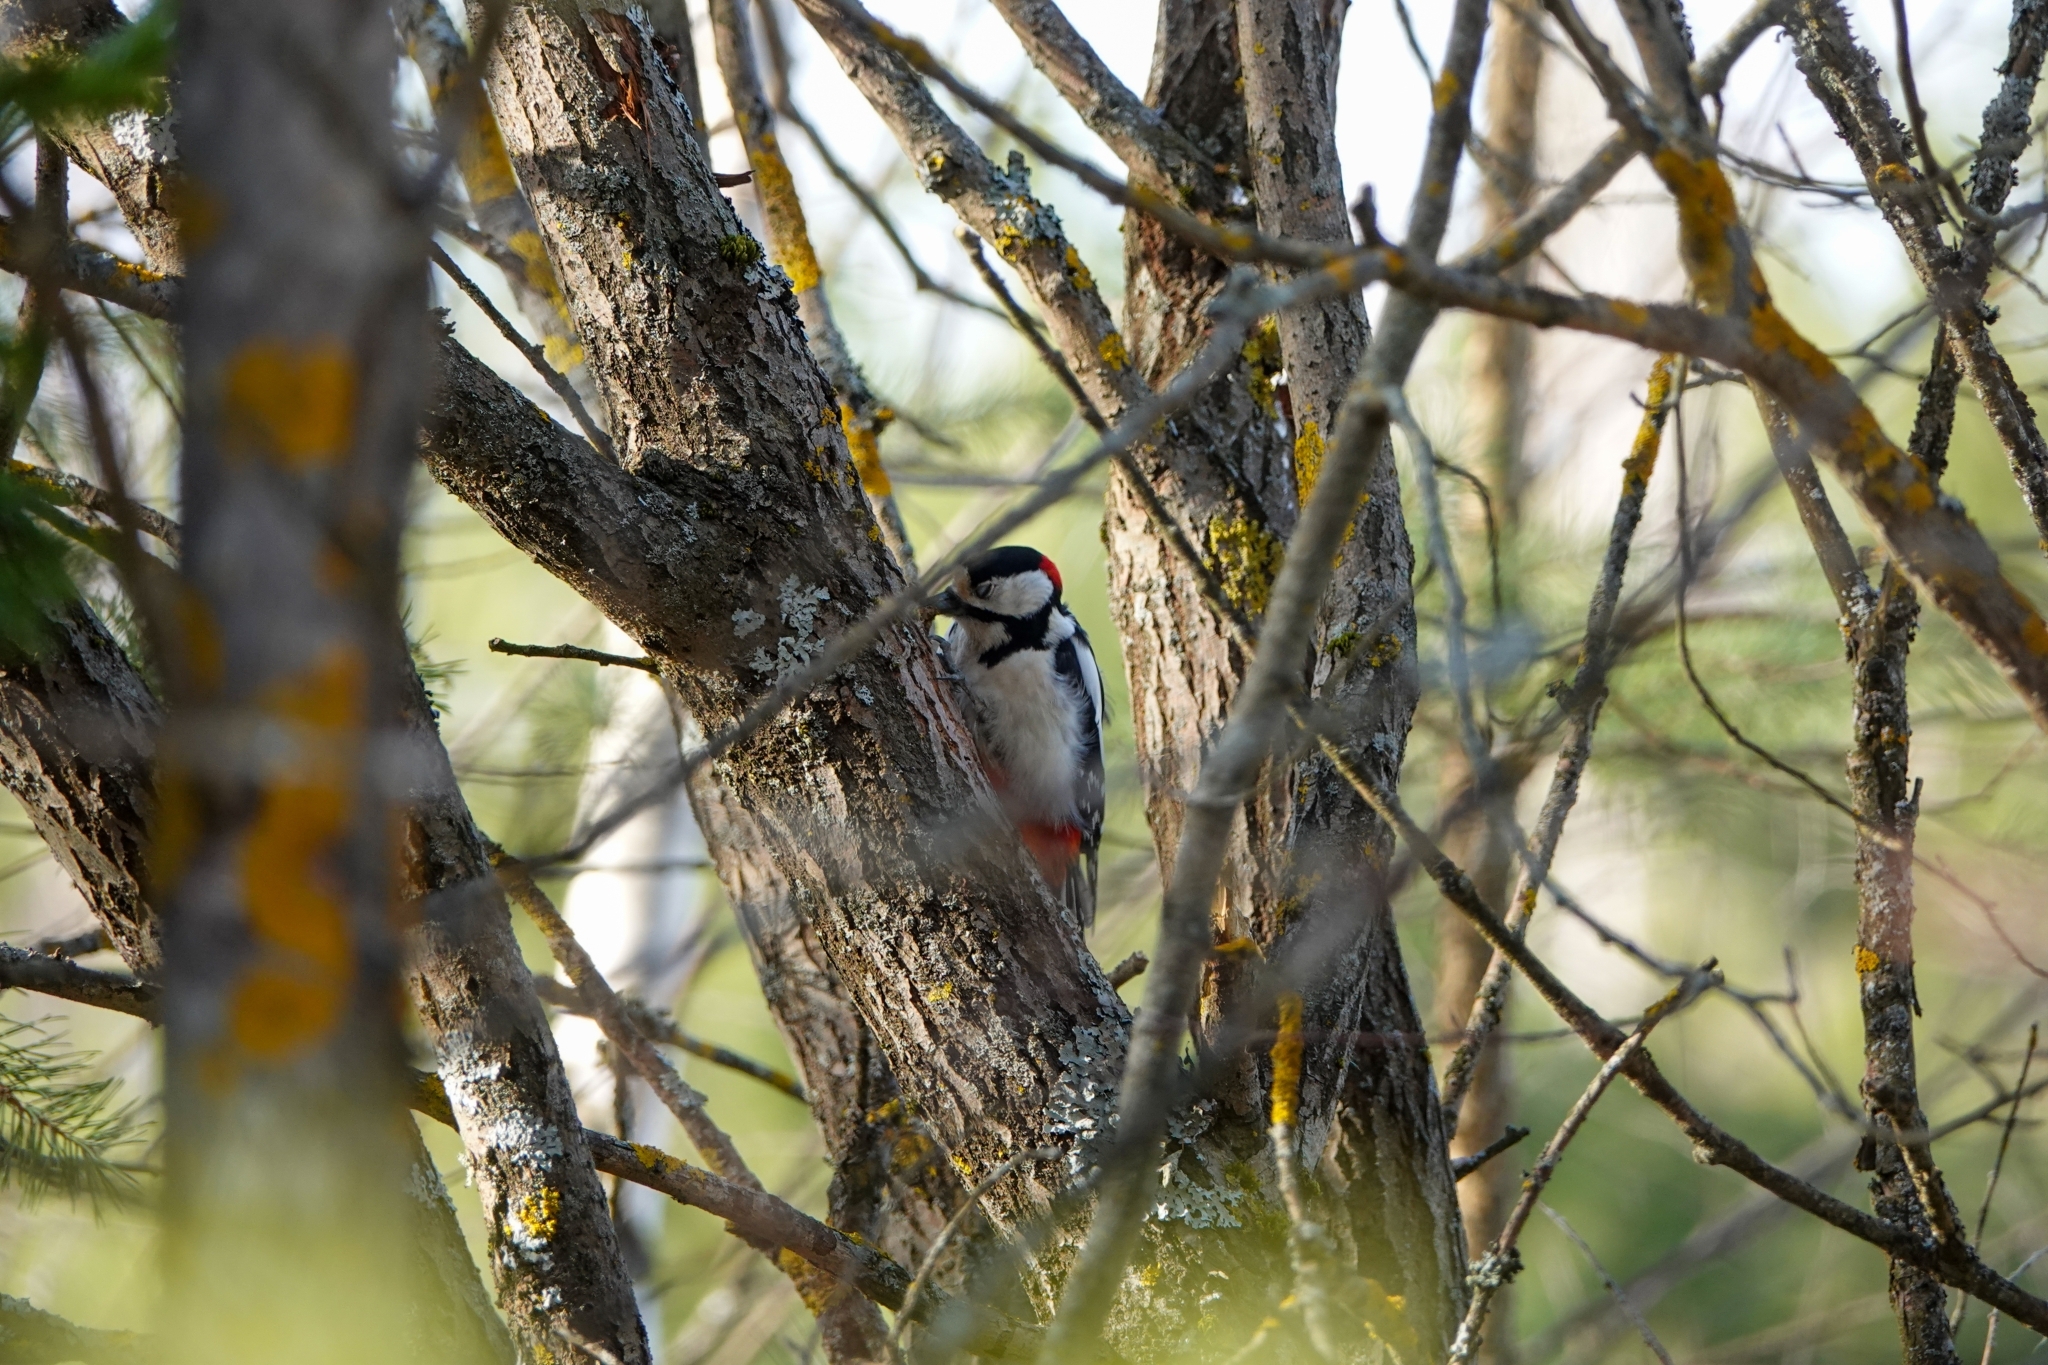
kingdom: Animalia
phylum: Chordata
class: Aves
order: Piciformes
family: Picidae
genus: Dendrocopos
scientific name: Dendrocopos major
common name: Great spotted woodpecker
